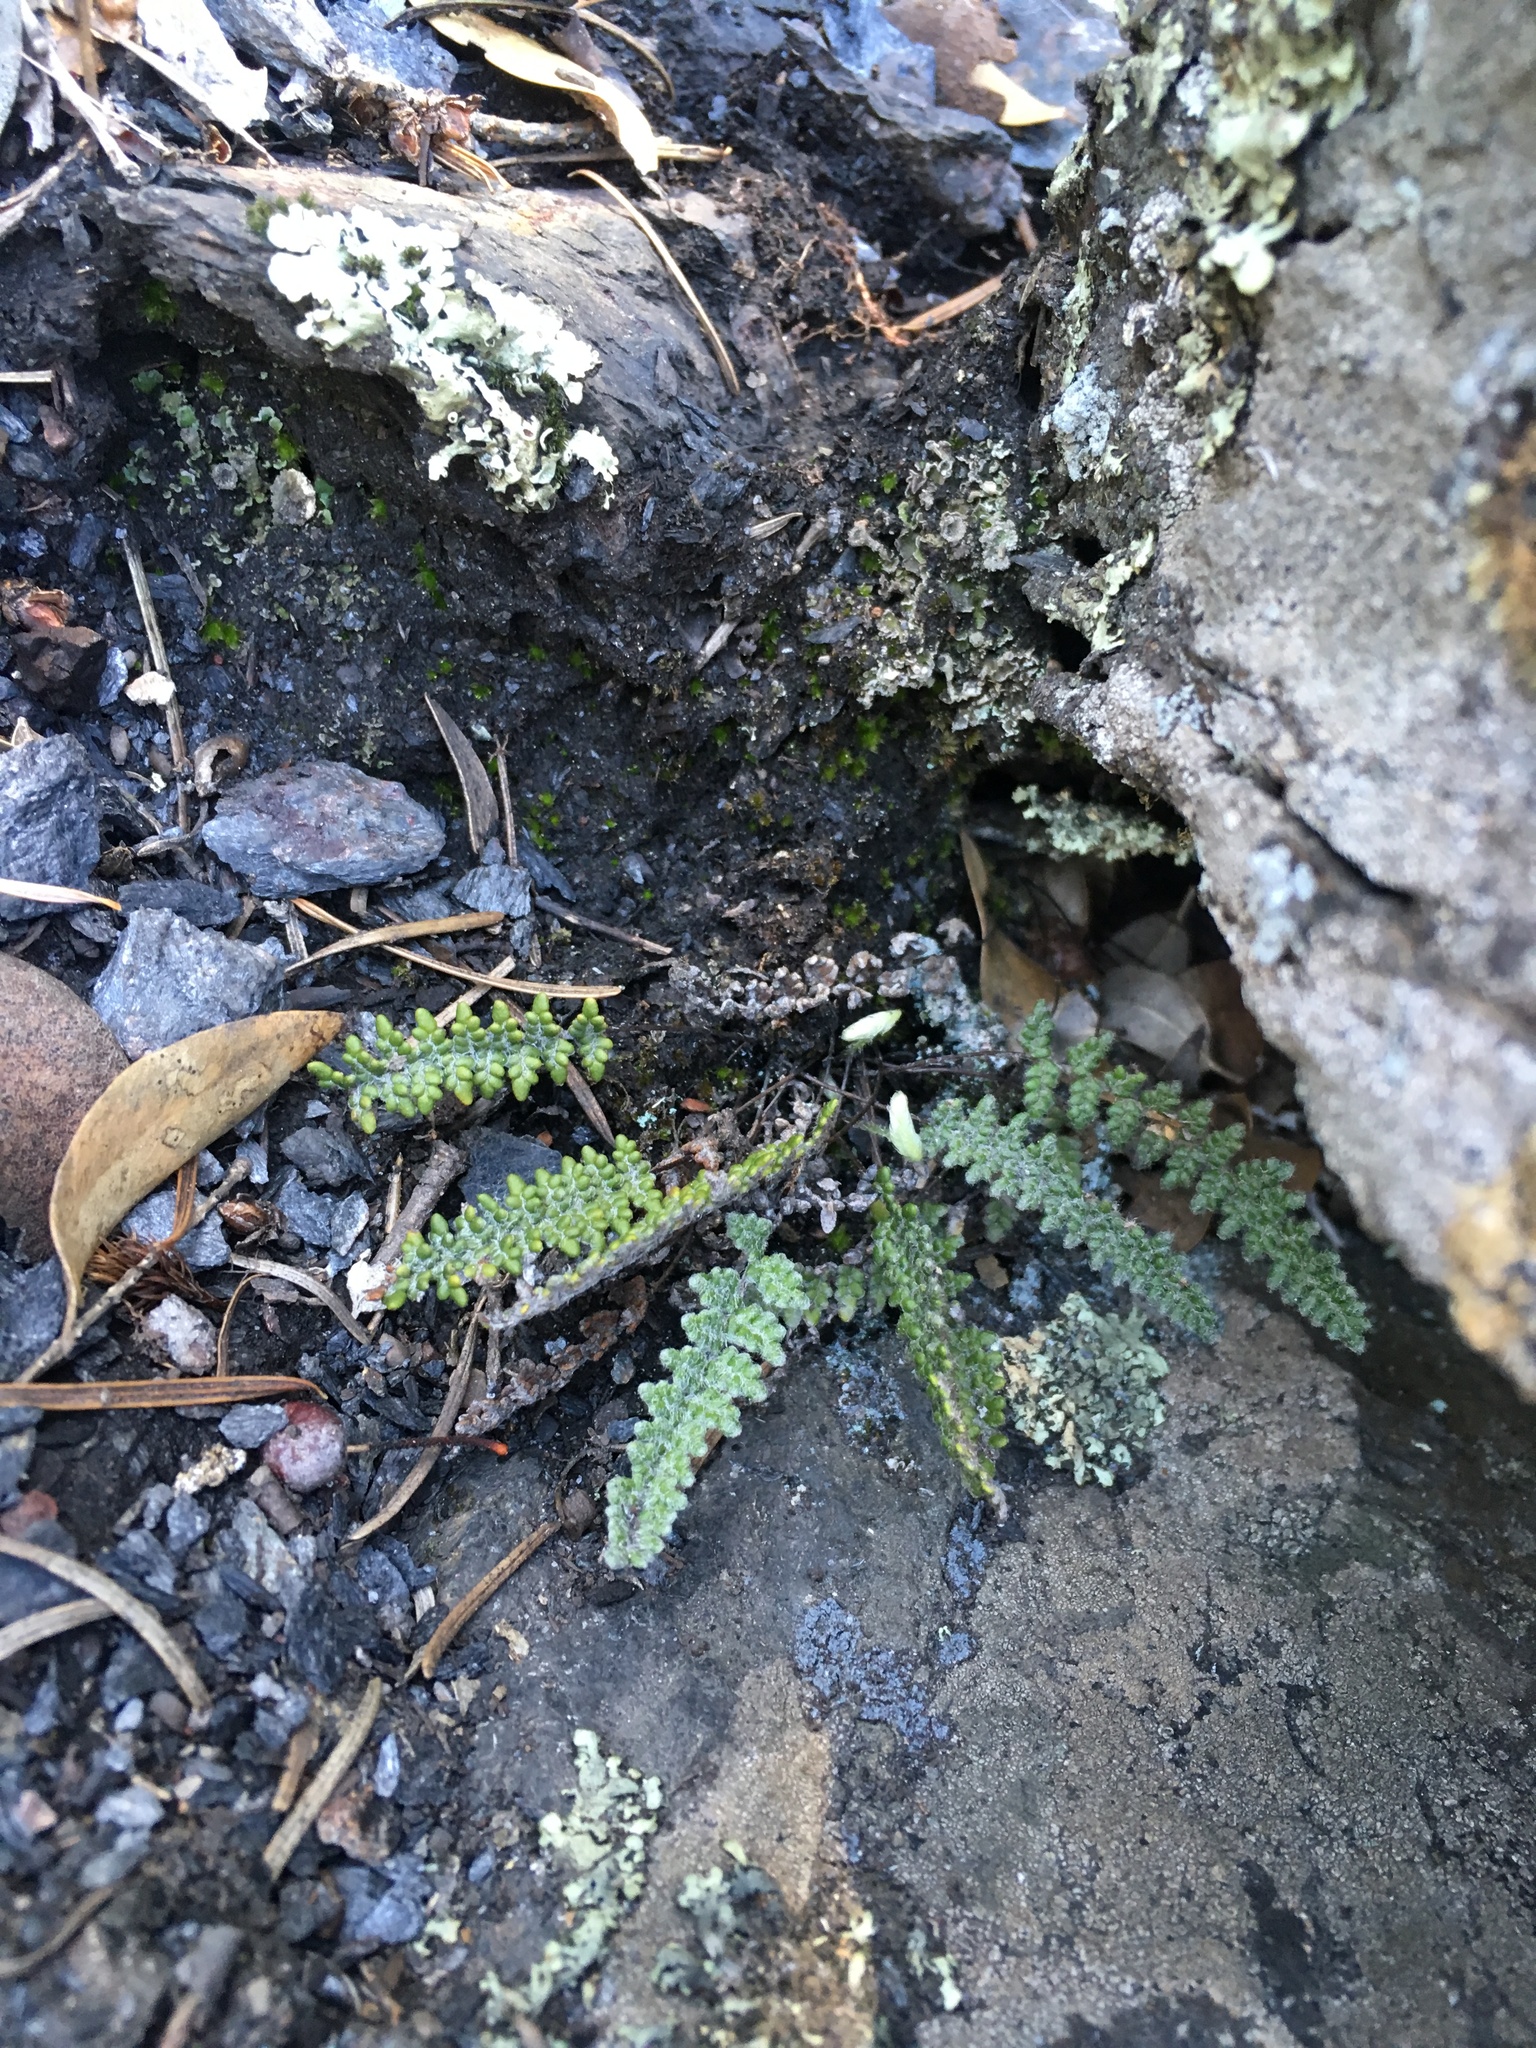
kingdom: Plantae
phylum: Tracheophyta
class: Polypodiopsida
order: Polypodiales
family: Pteridaceae
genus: Myriopteris
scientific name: Myriopteris gracillima
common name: Lace fern
